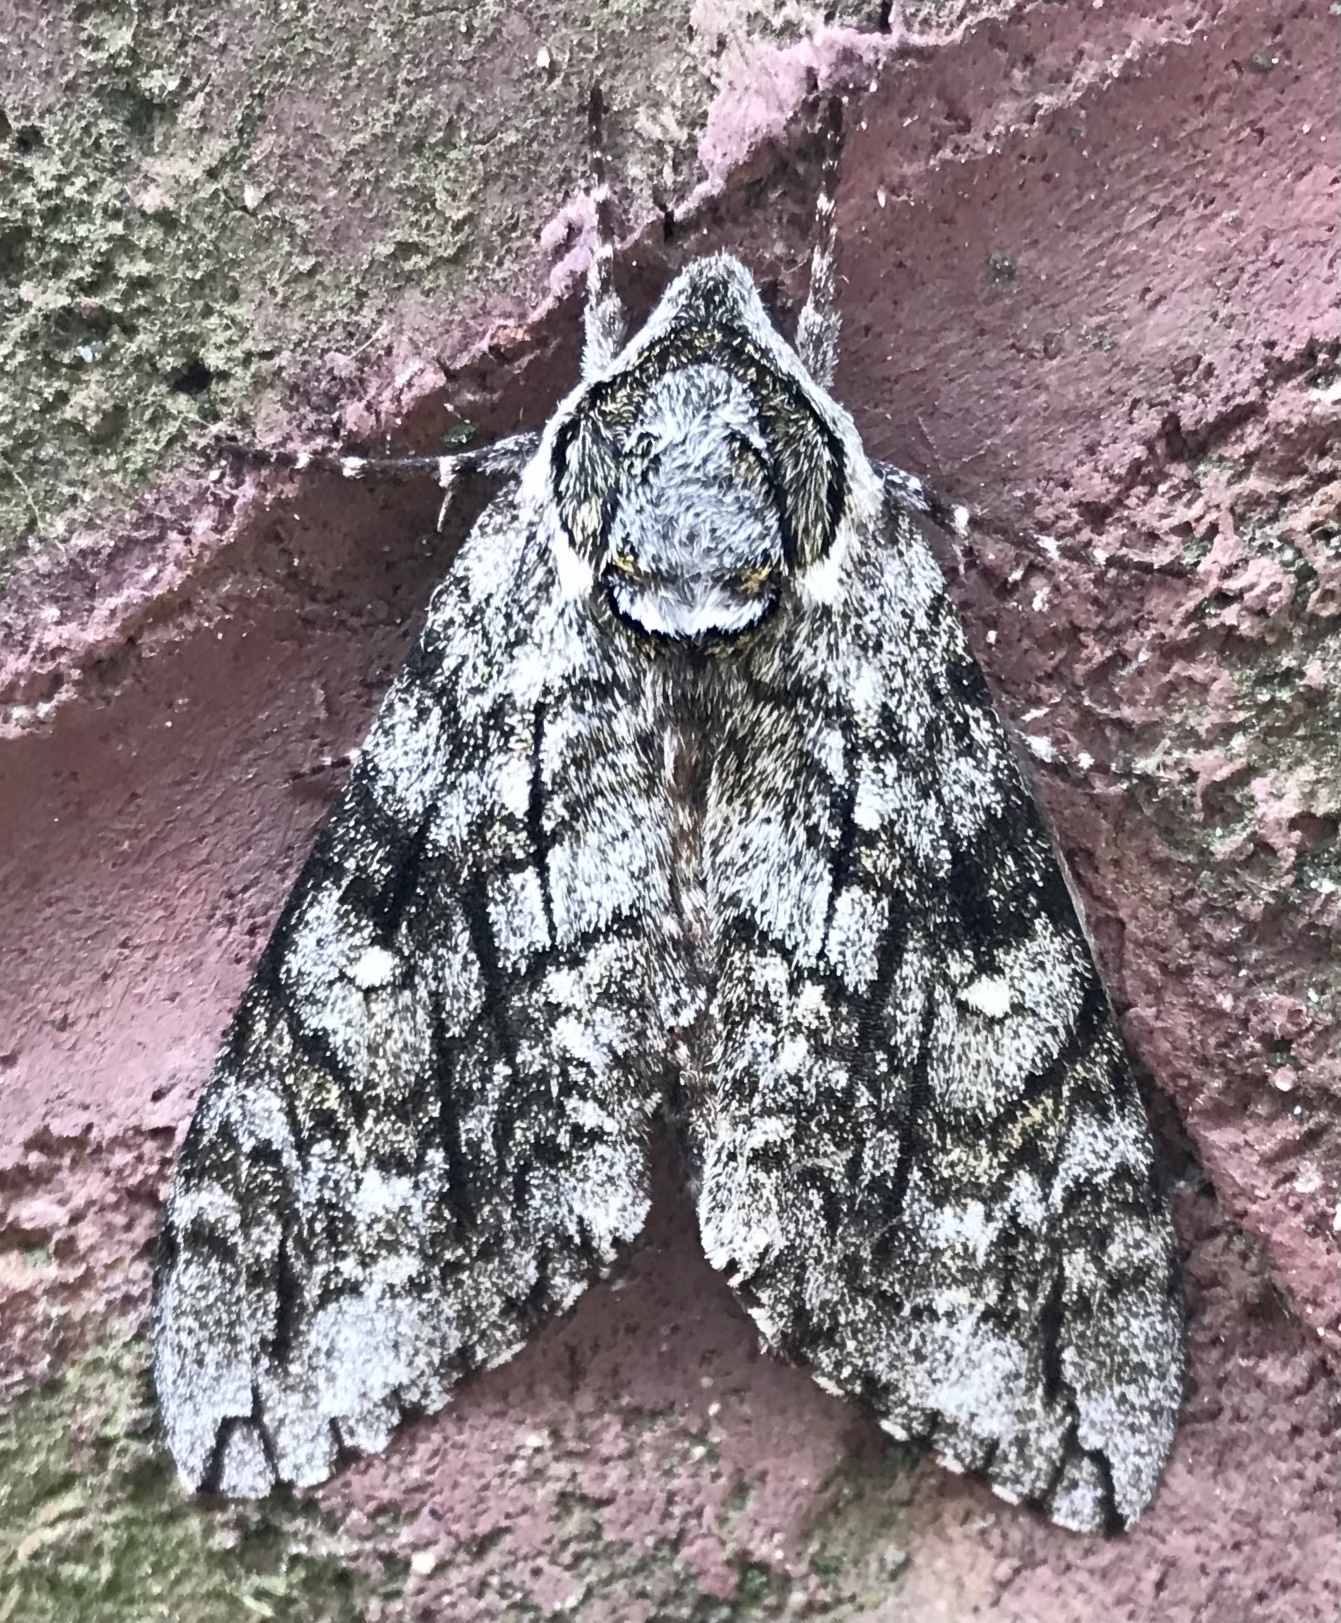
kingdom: Animalia
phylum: Arthropoda
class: Insecta
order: Lepidoptera
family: Sphingidae
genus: Ceratomia
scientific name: Ceratomia undulosa
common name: Waved sphinx
